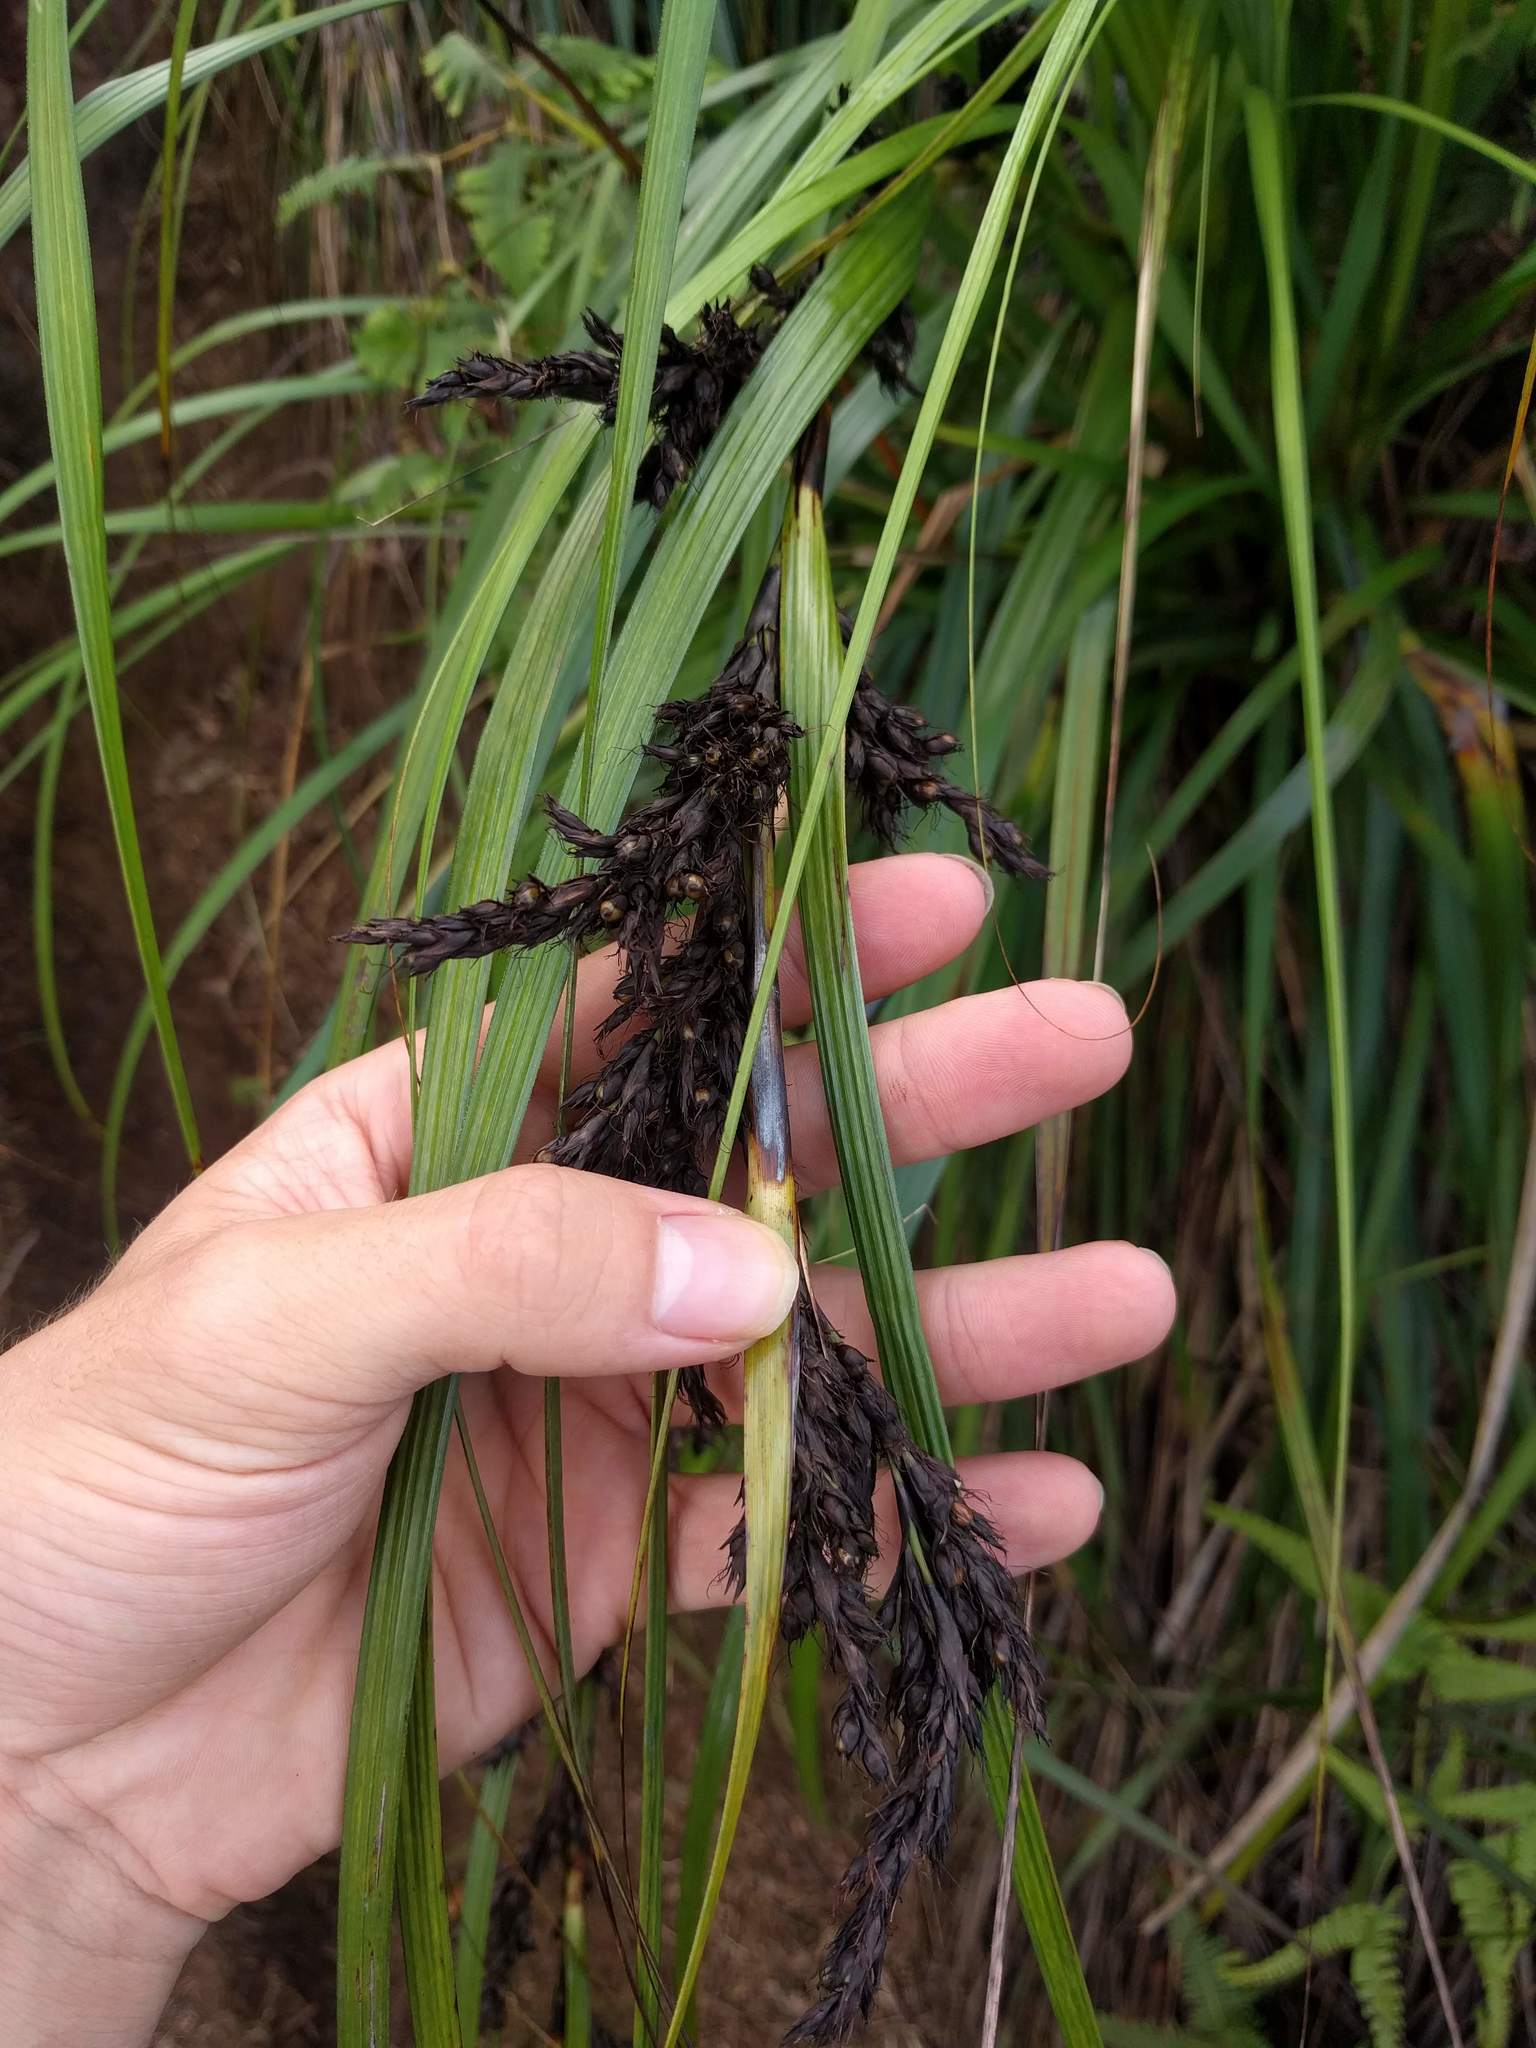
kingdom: Plantae
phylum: Tracheophyta
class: Liliopsida
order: Poales
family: Cyperaceae
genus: Machaerina
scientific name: Machaerina angustifolia
